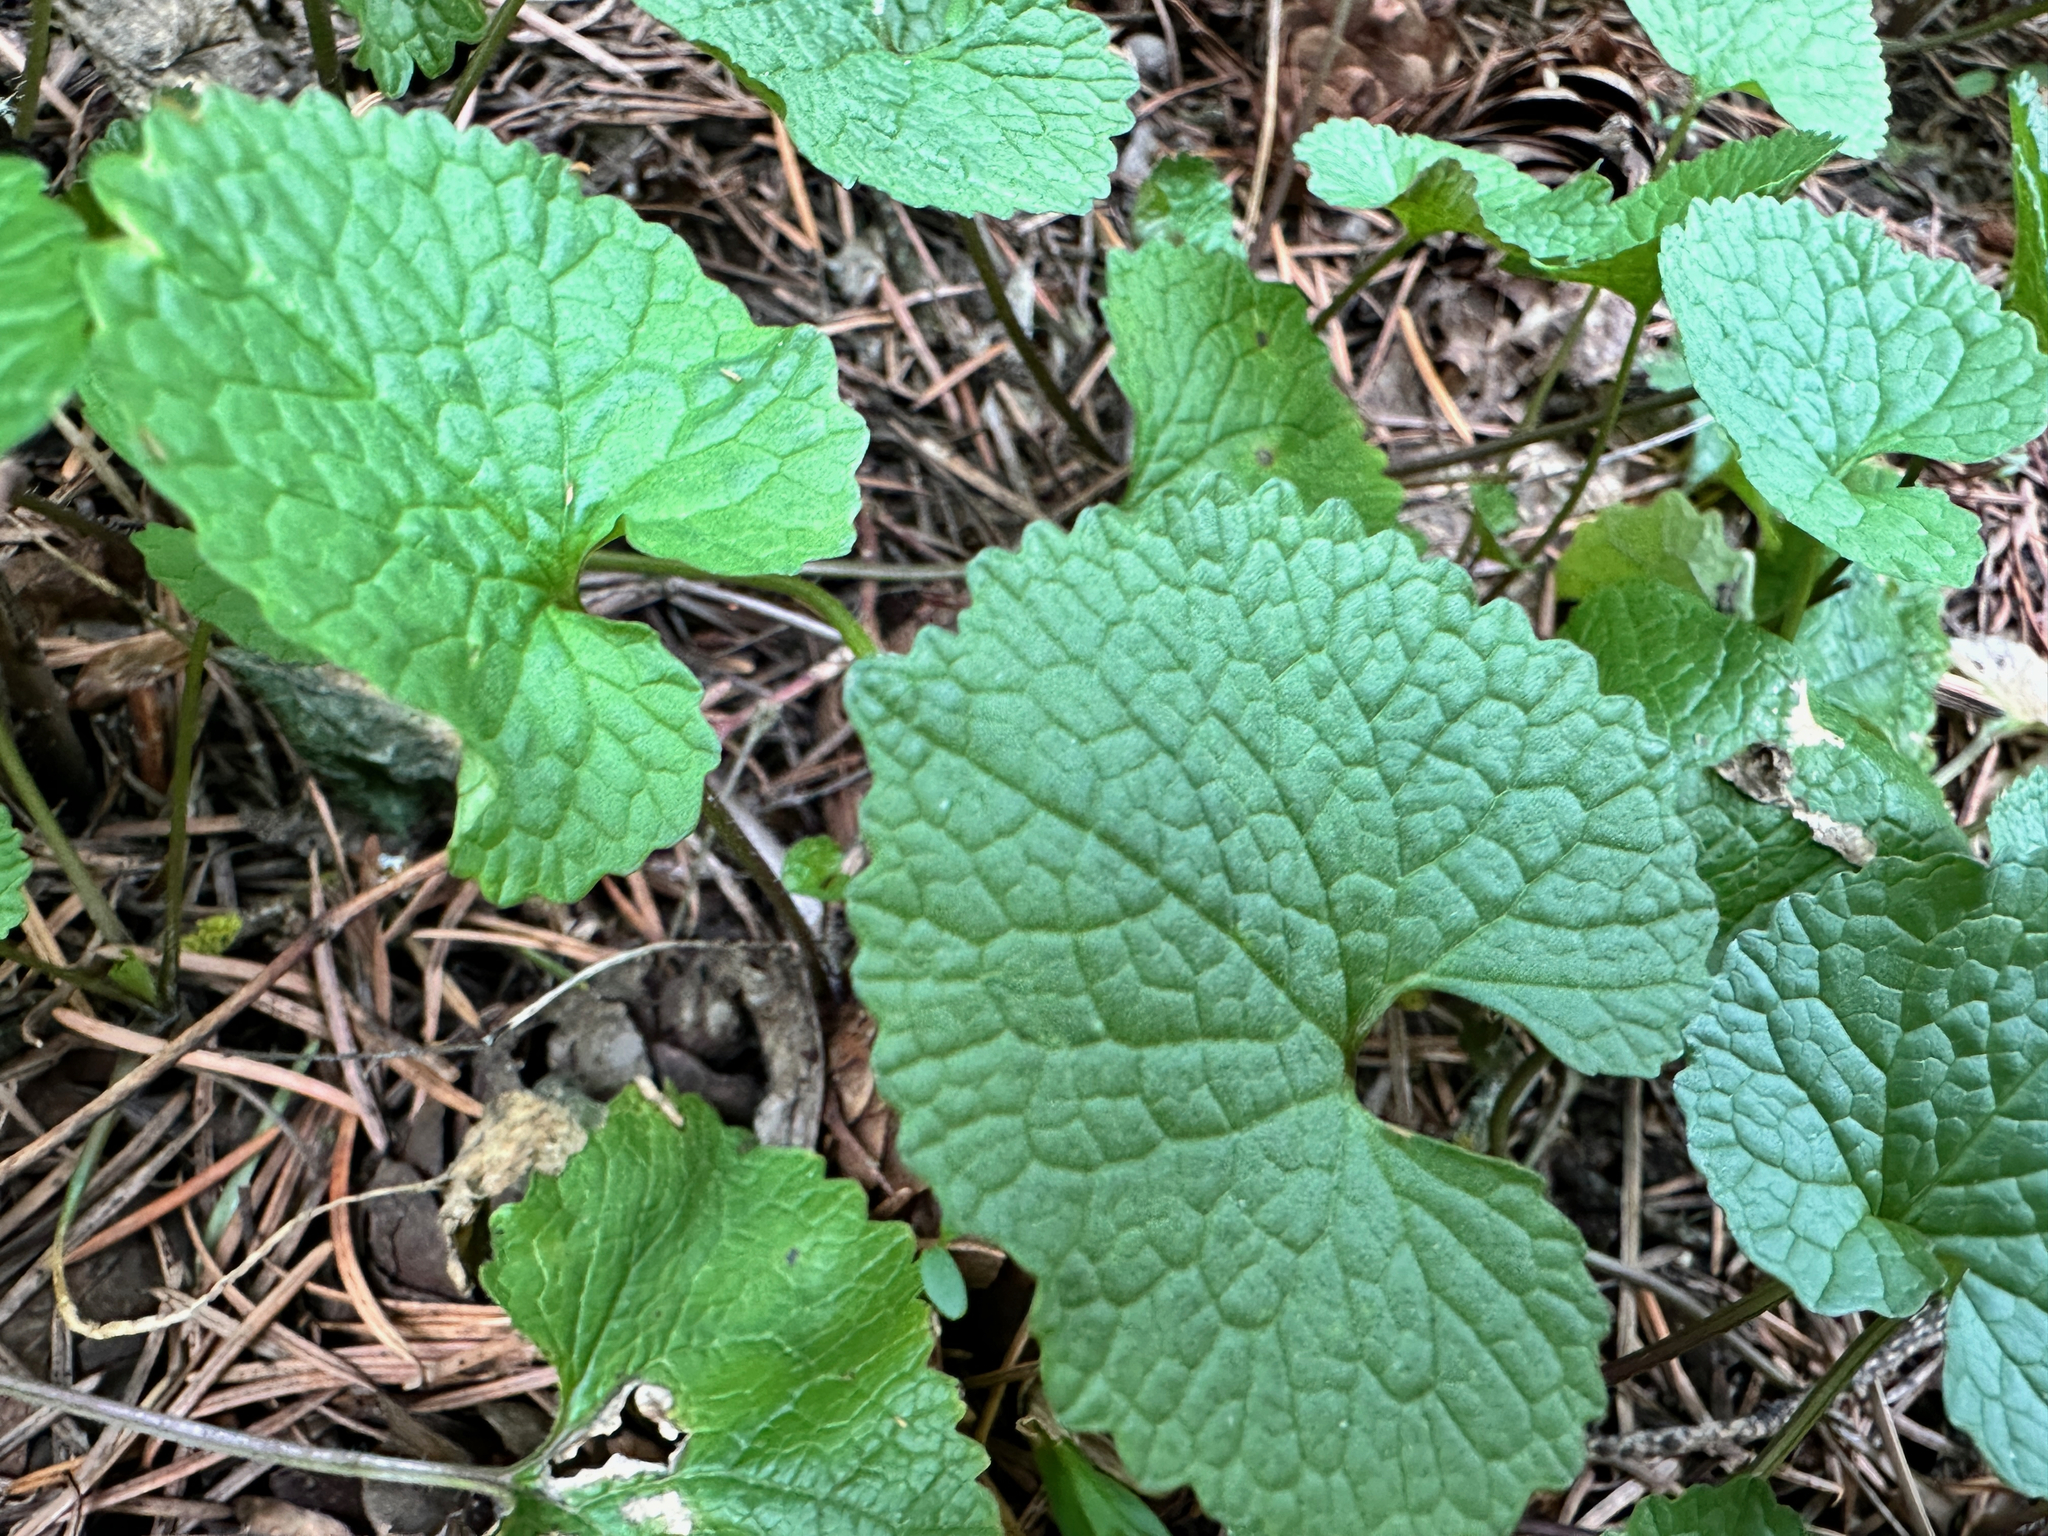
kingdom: Plantae
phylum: Tracheophyta
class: Magnoliopsida
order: Brassicales
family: Brassicaceae
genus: Alliaria
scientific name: Alliaria petiolata
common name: Garlic mustard
